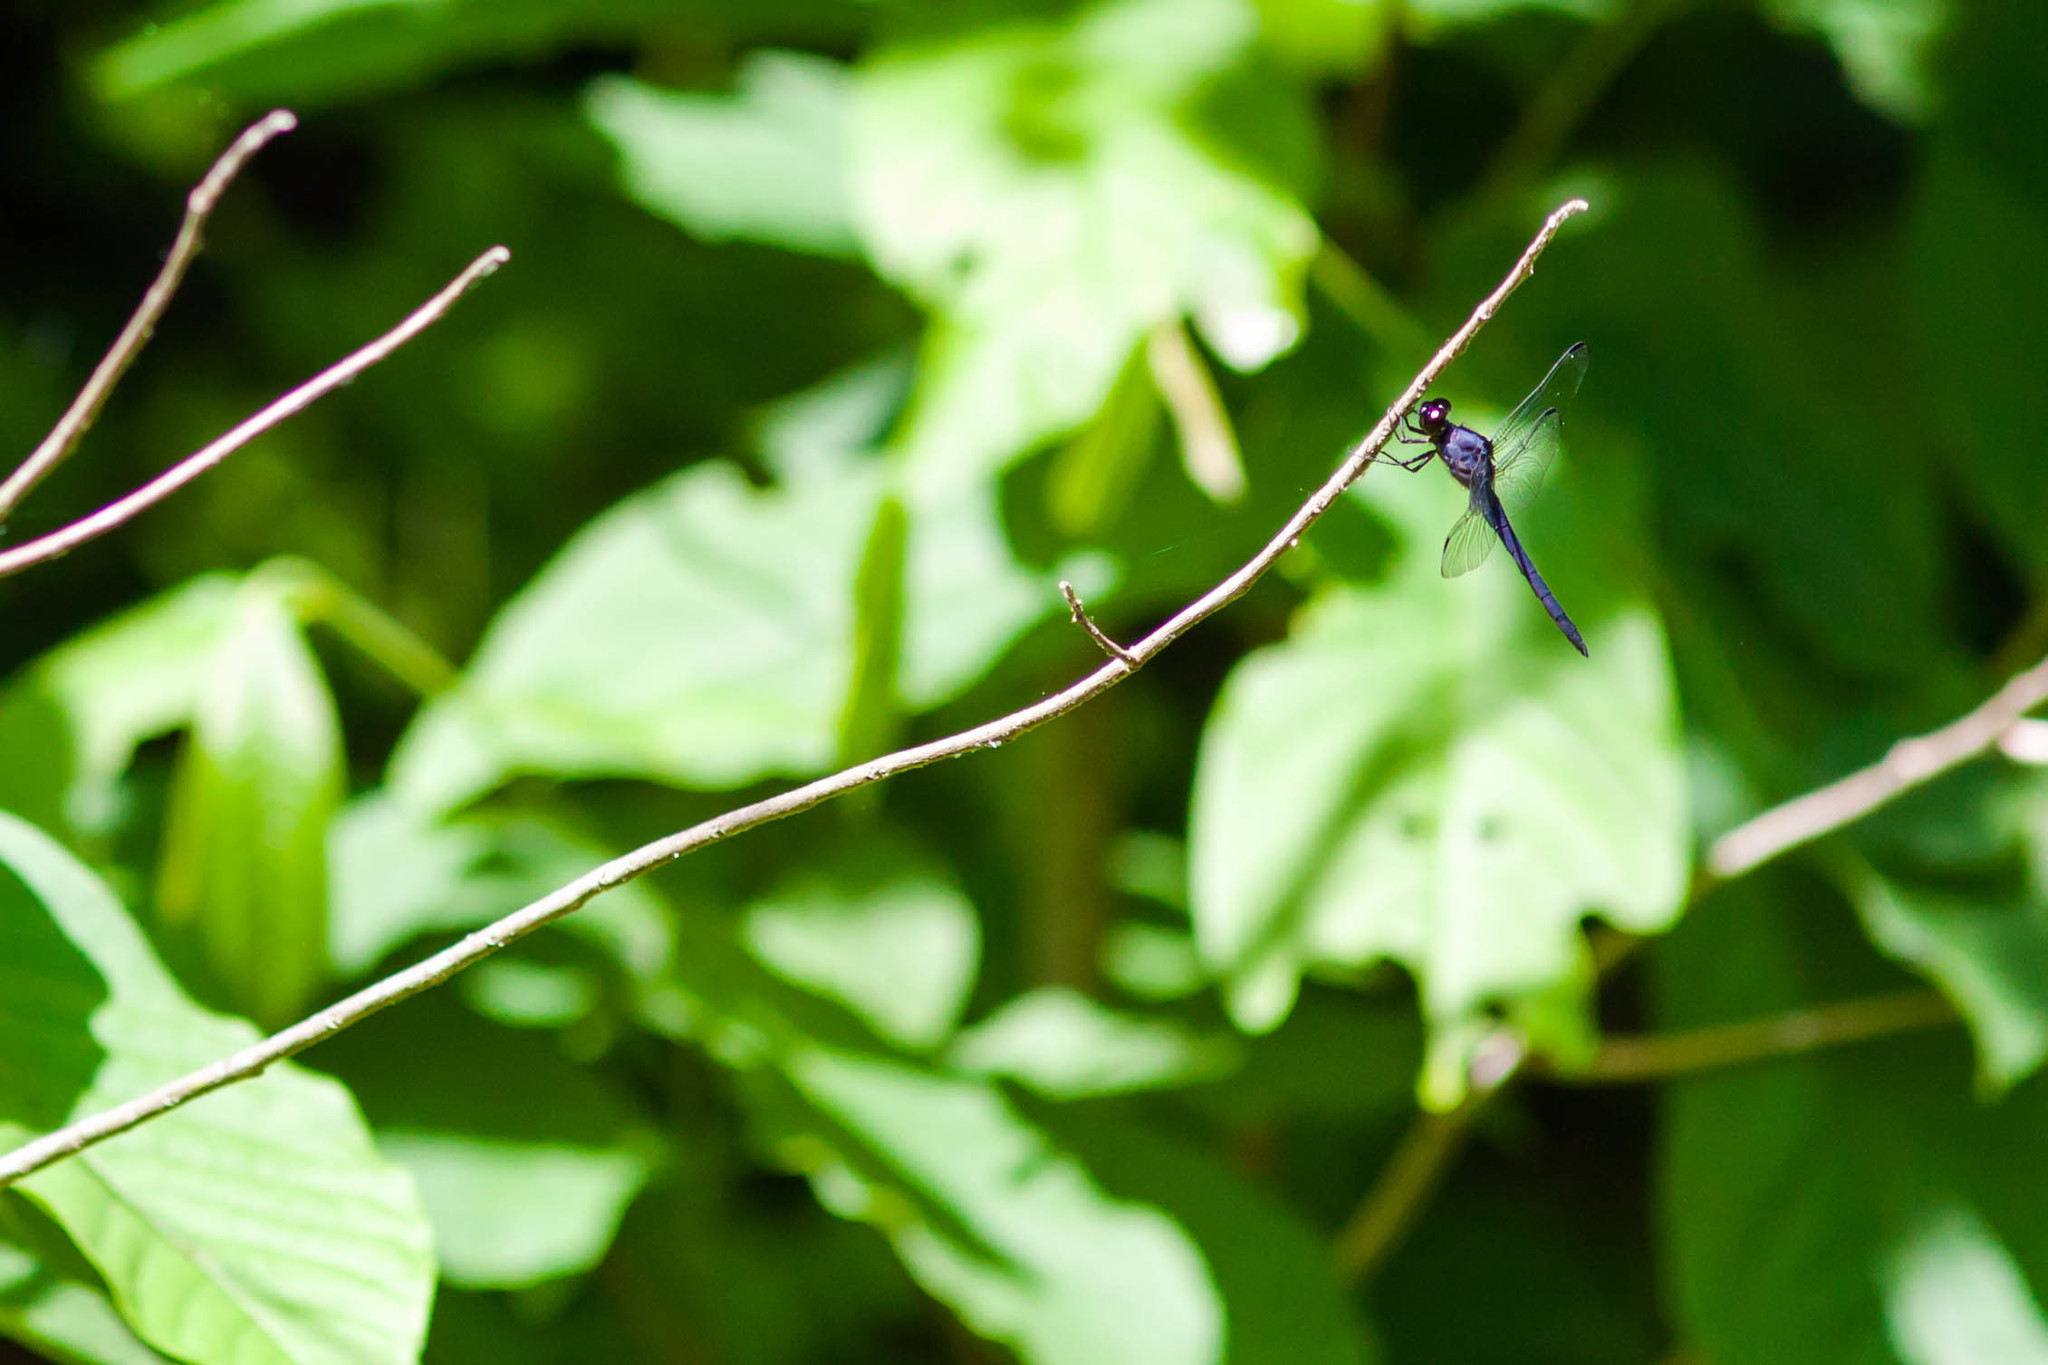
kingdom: Animalia
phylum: Arthropoda
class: Insecta
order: Odonata
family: Libellulidae
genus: Libellula
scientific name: Libellula incesta
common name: Slaty skimmer
